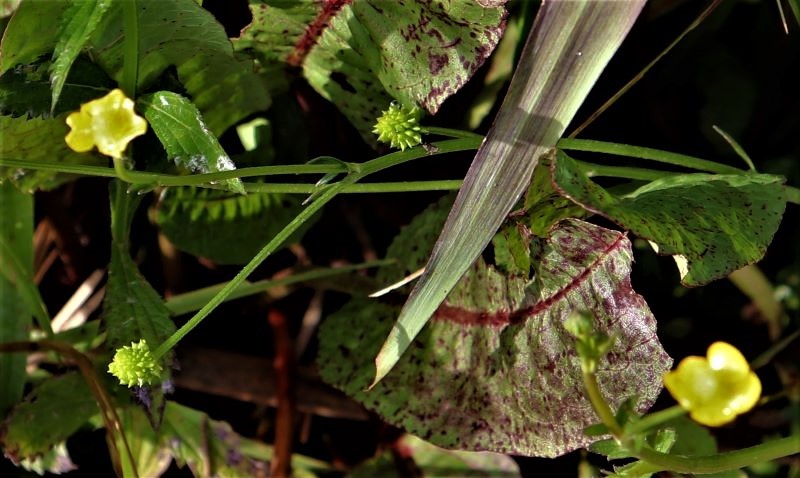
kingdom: Plantae
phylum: Tracheophyta
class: Magnoliopsida
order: Ranunculales
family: Ranunculaceae
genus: Ranunculus
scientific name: Ranunculus multifidus
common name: Wild buttercup
